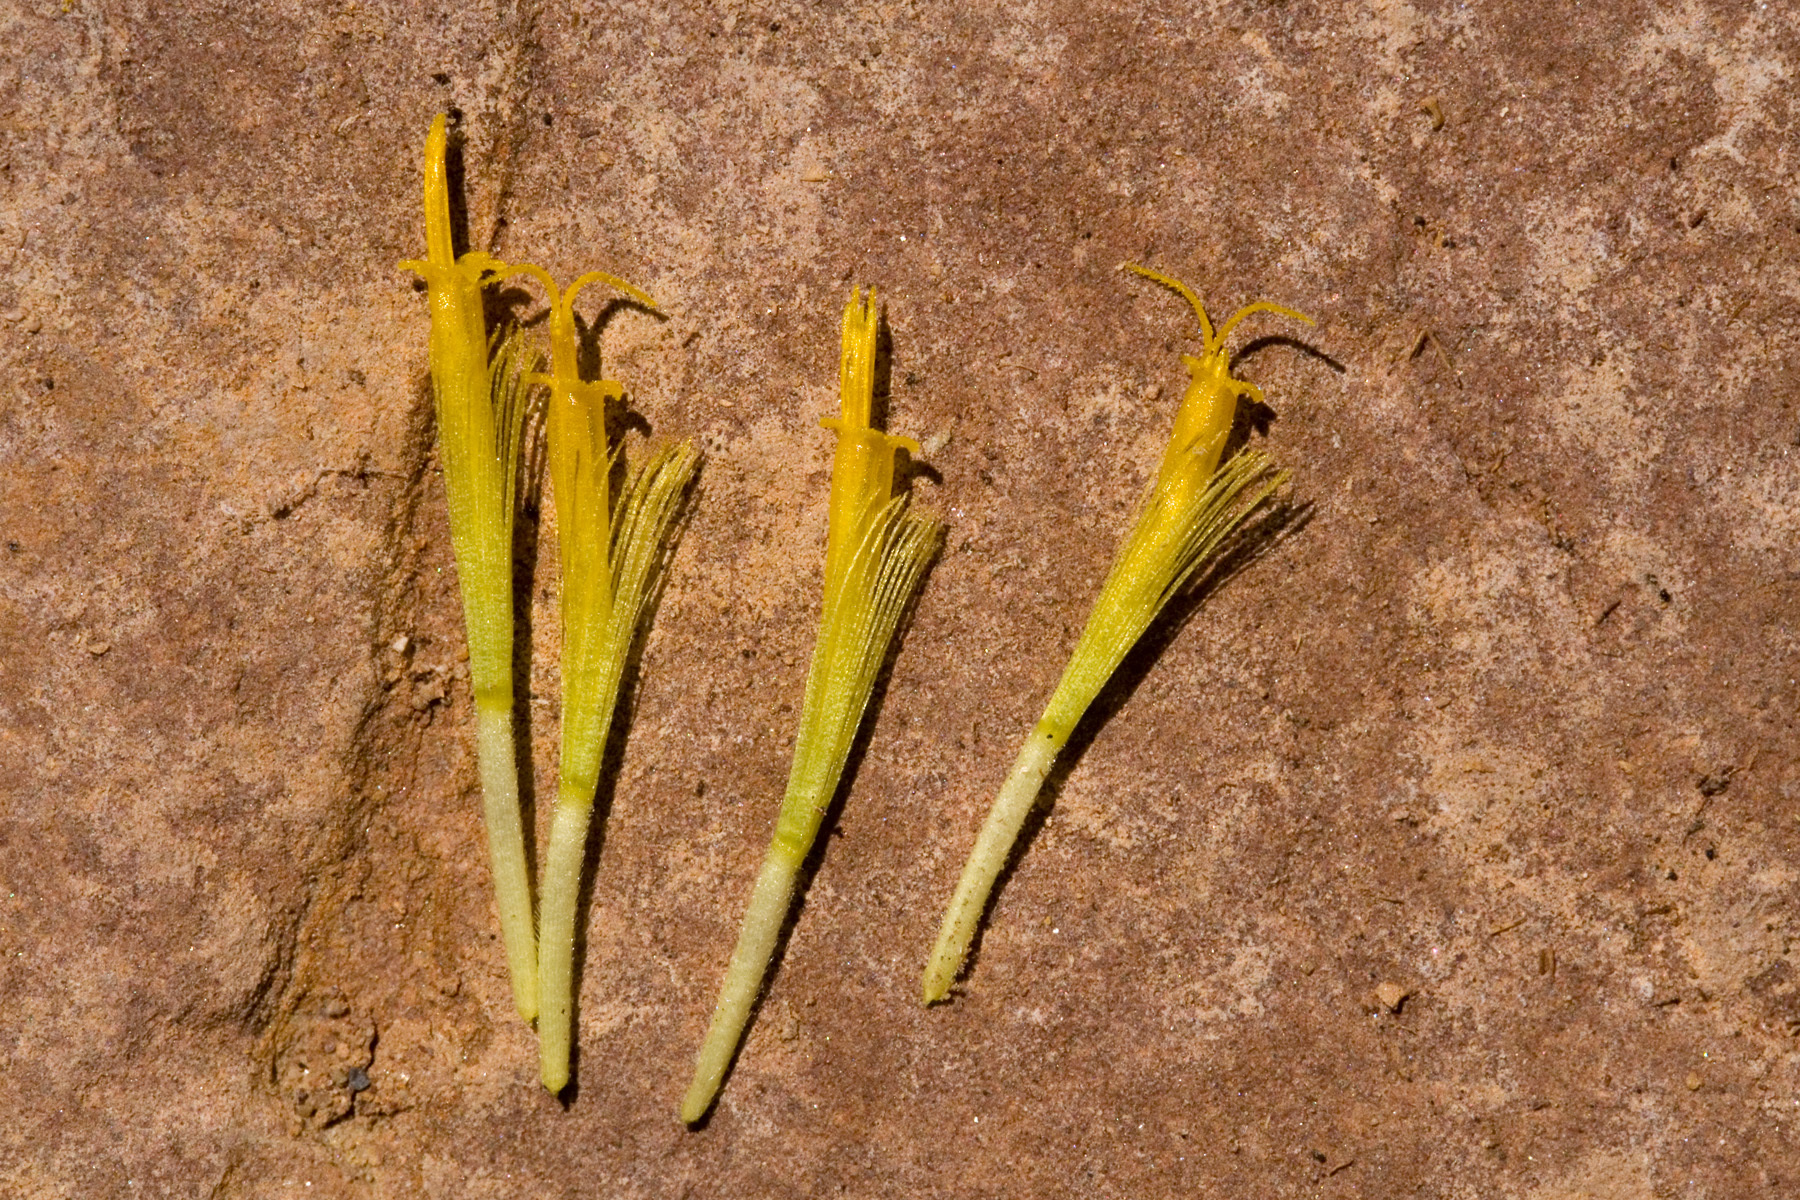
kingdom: Plantae
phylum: Tracheophyta
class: Magnoliopsida
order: Asterales
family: Asteraceae
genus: Porophyllum
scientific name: Porophyllum scoparium
